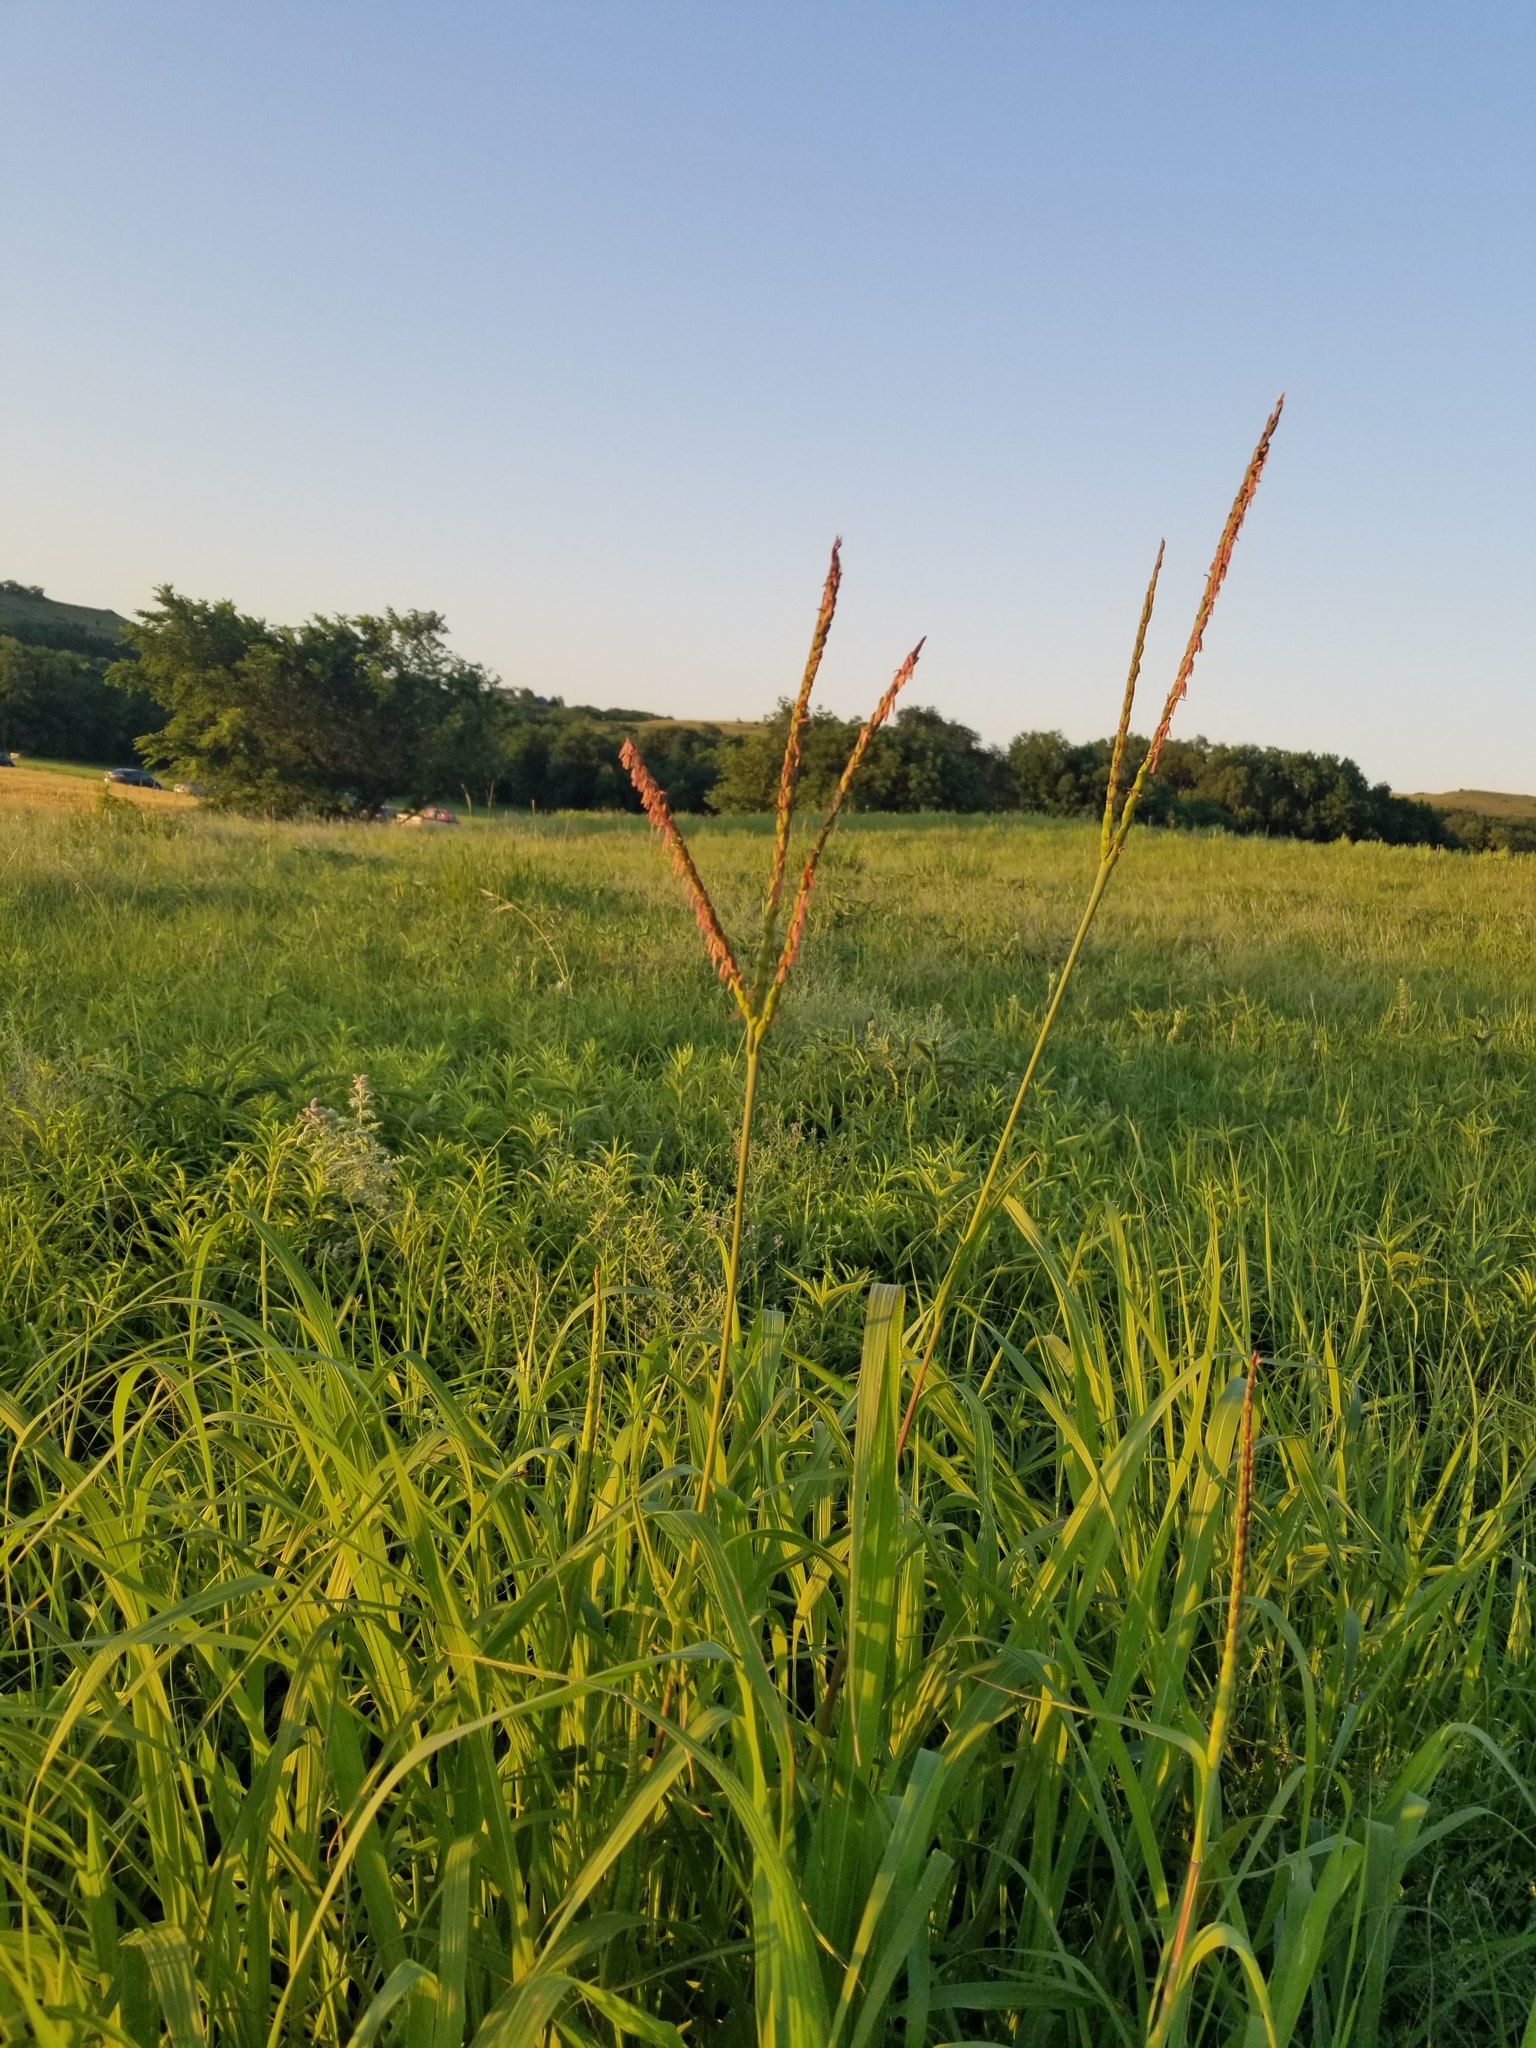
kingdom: Plantae
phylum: Tracheophyta
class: Liliopsida
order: Poales
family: Poaceae
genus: Tripsacum
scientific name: Tripsacum dactyloides
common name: Buffalo-grass
